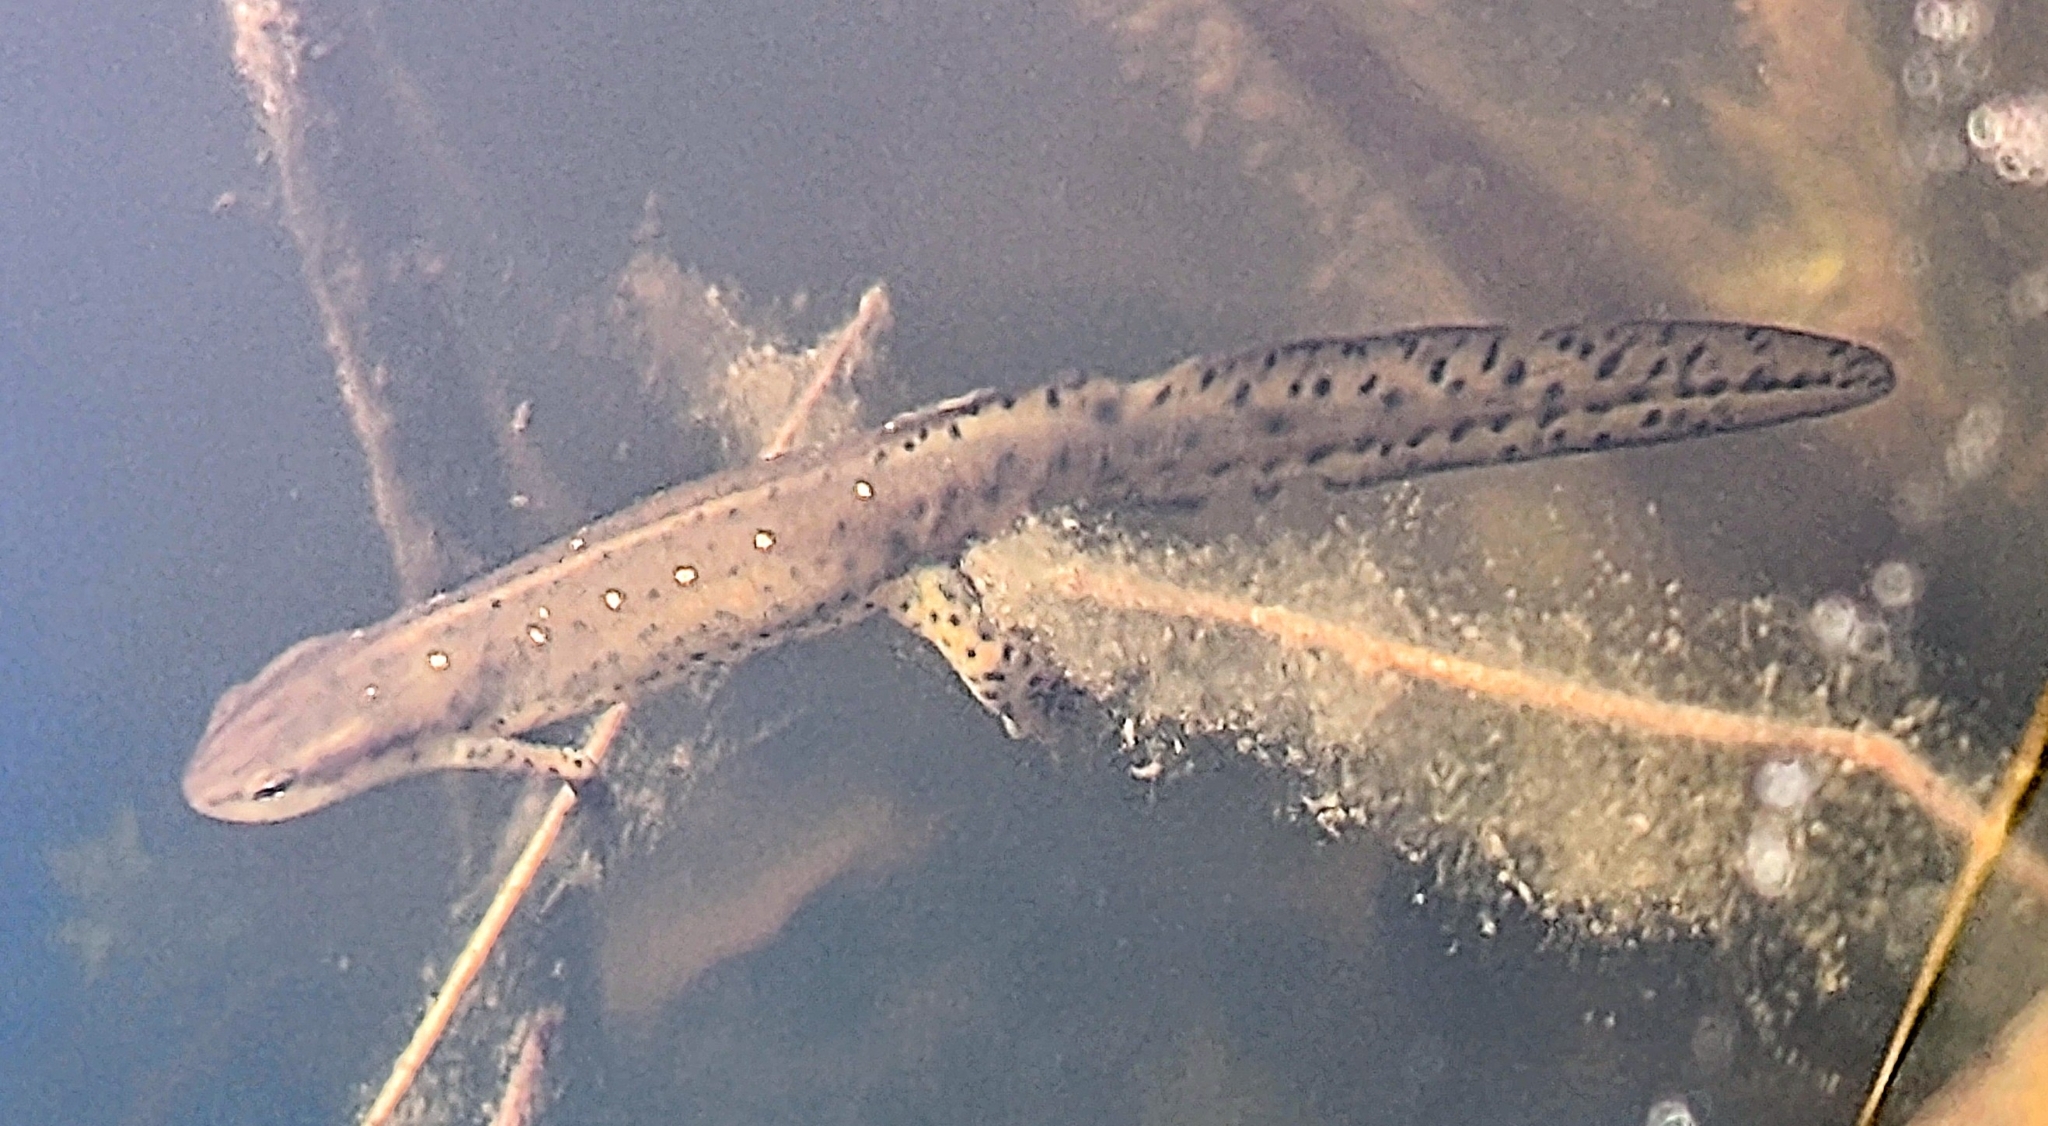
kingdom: Animalia
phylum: Chordata
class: Amphibia
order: Caudata
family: Salamandridae
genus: Notophthalmus
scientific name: Notophthalmus viridescens
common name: Eastern newt
